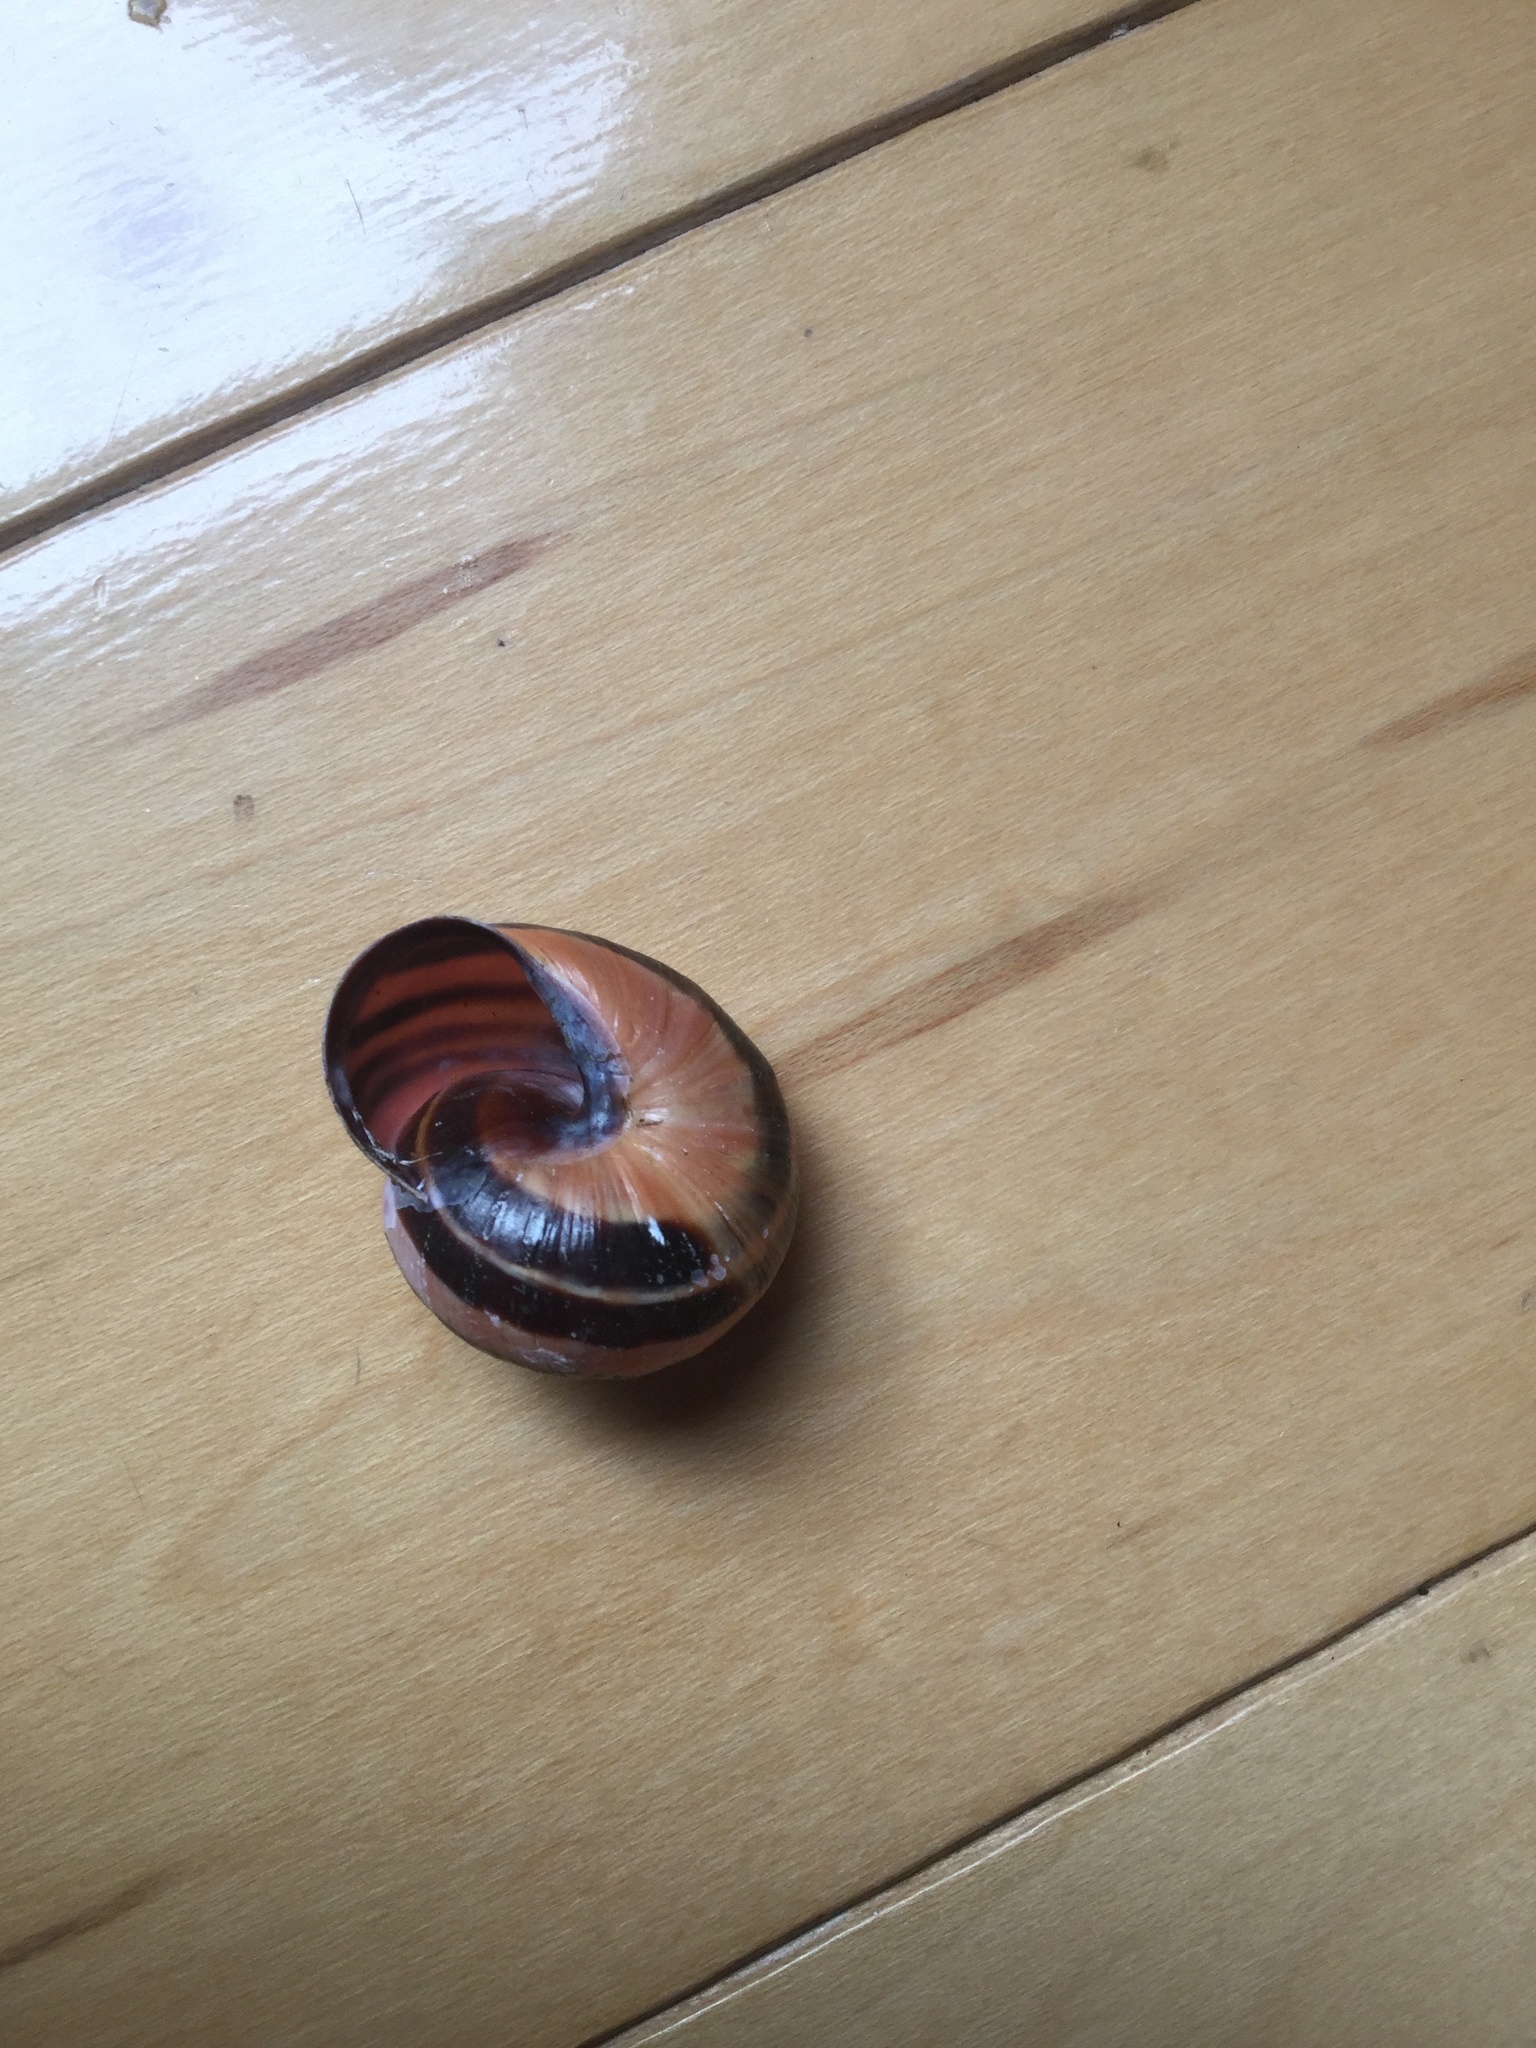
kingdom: Animalia
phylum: Mollusca
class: Gastropoda
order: Stylommatophora
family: Helicidae
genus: Cepaea
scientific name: Cepaea nemoralis
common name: Grovesnail
